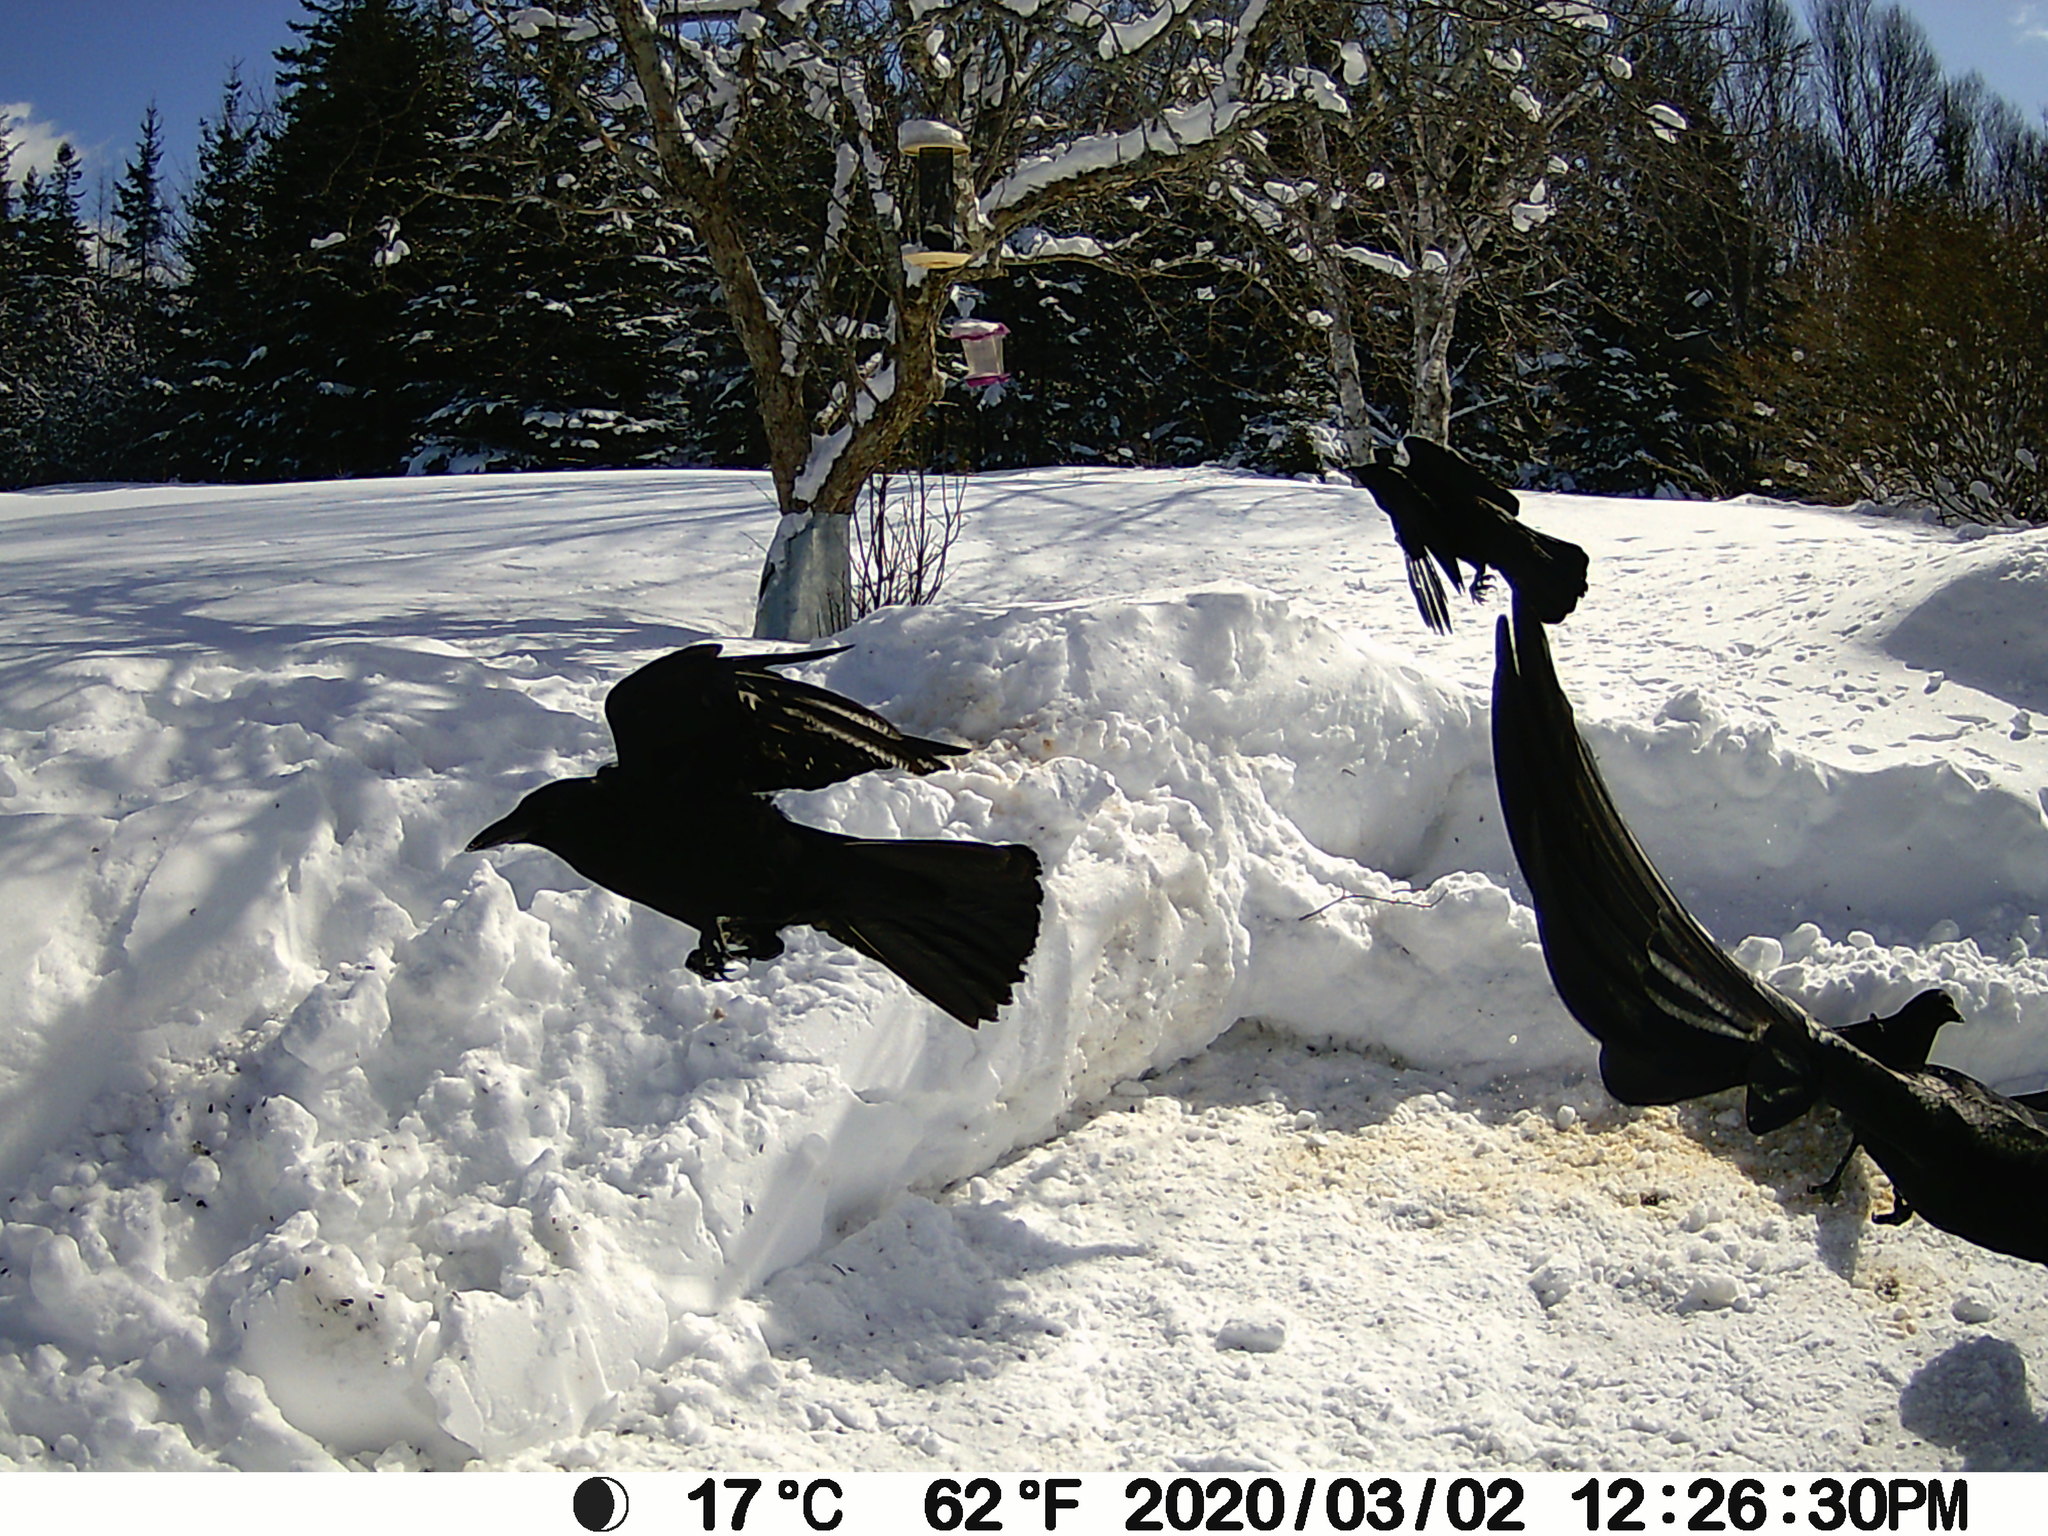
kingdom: Animalia
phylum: Chordata
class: Aves
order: Passeriformes
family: Corvidae
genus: Corvus
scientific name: Corvus brachyrhynchos
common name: American crow
